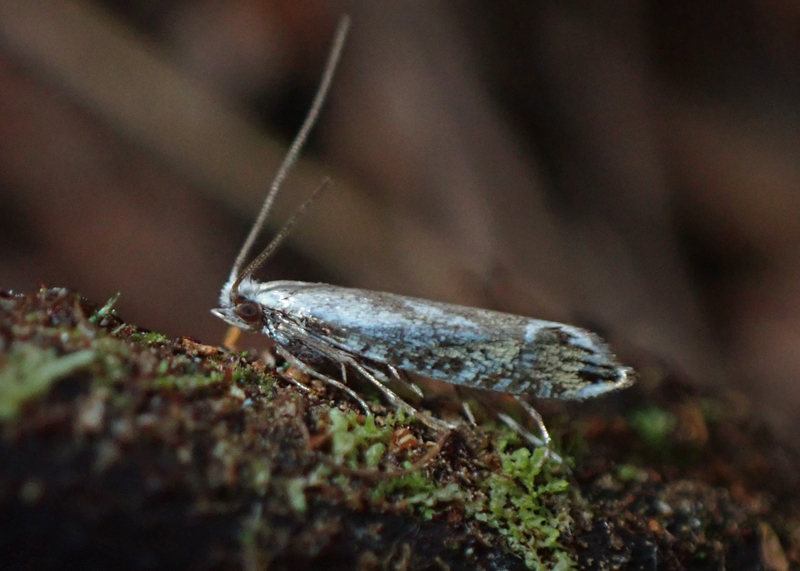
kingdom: Animalia
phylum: Arthropoda
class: Insecta
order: Lepidoptera
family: Tineidae
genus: Erechthias
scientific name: Erechthias decoranda
